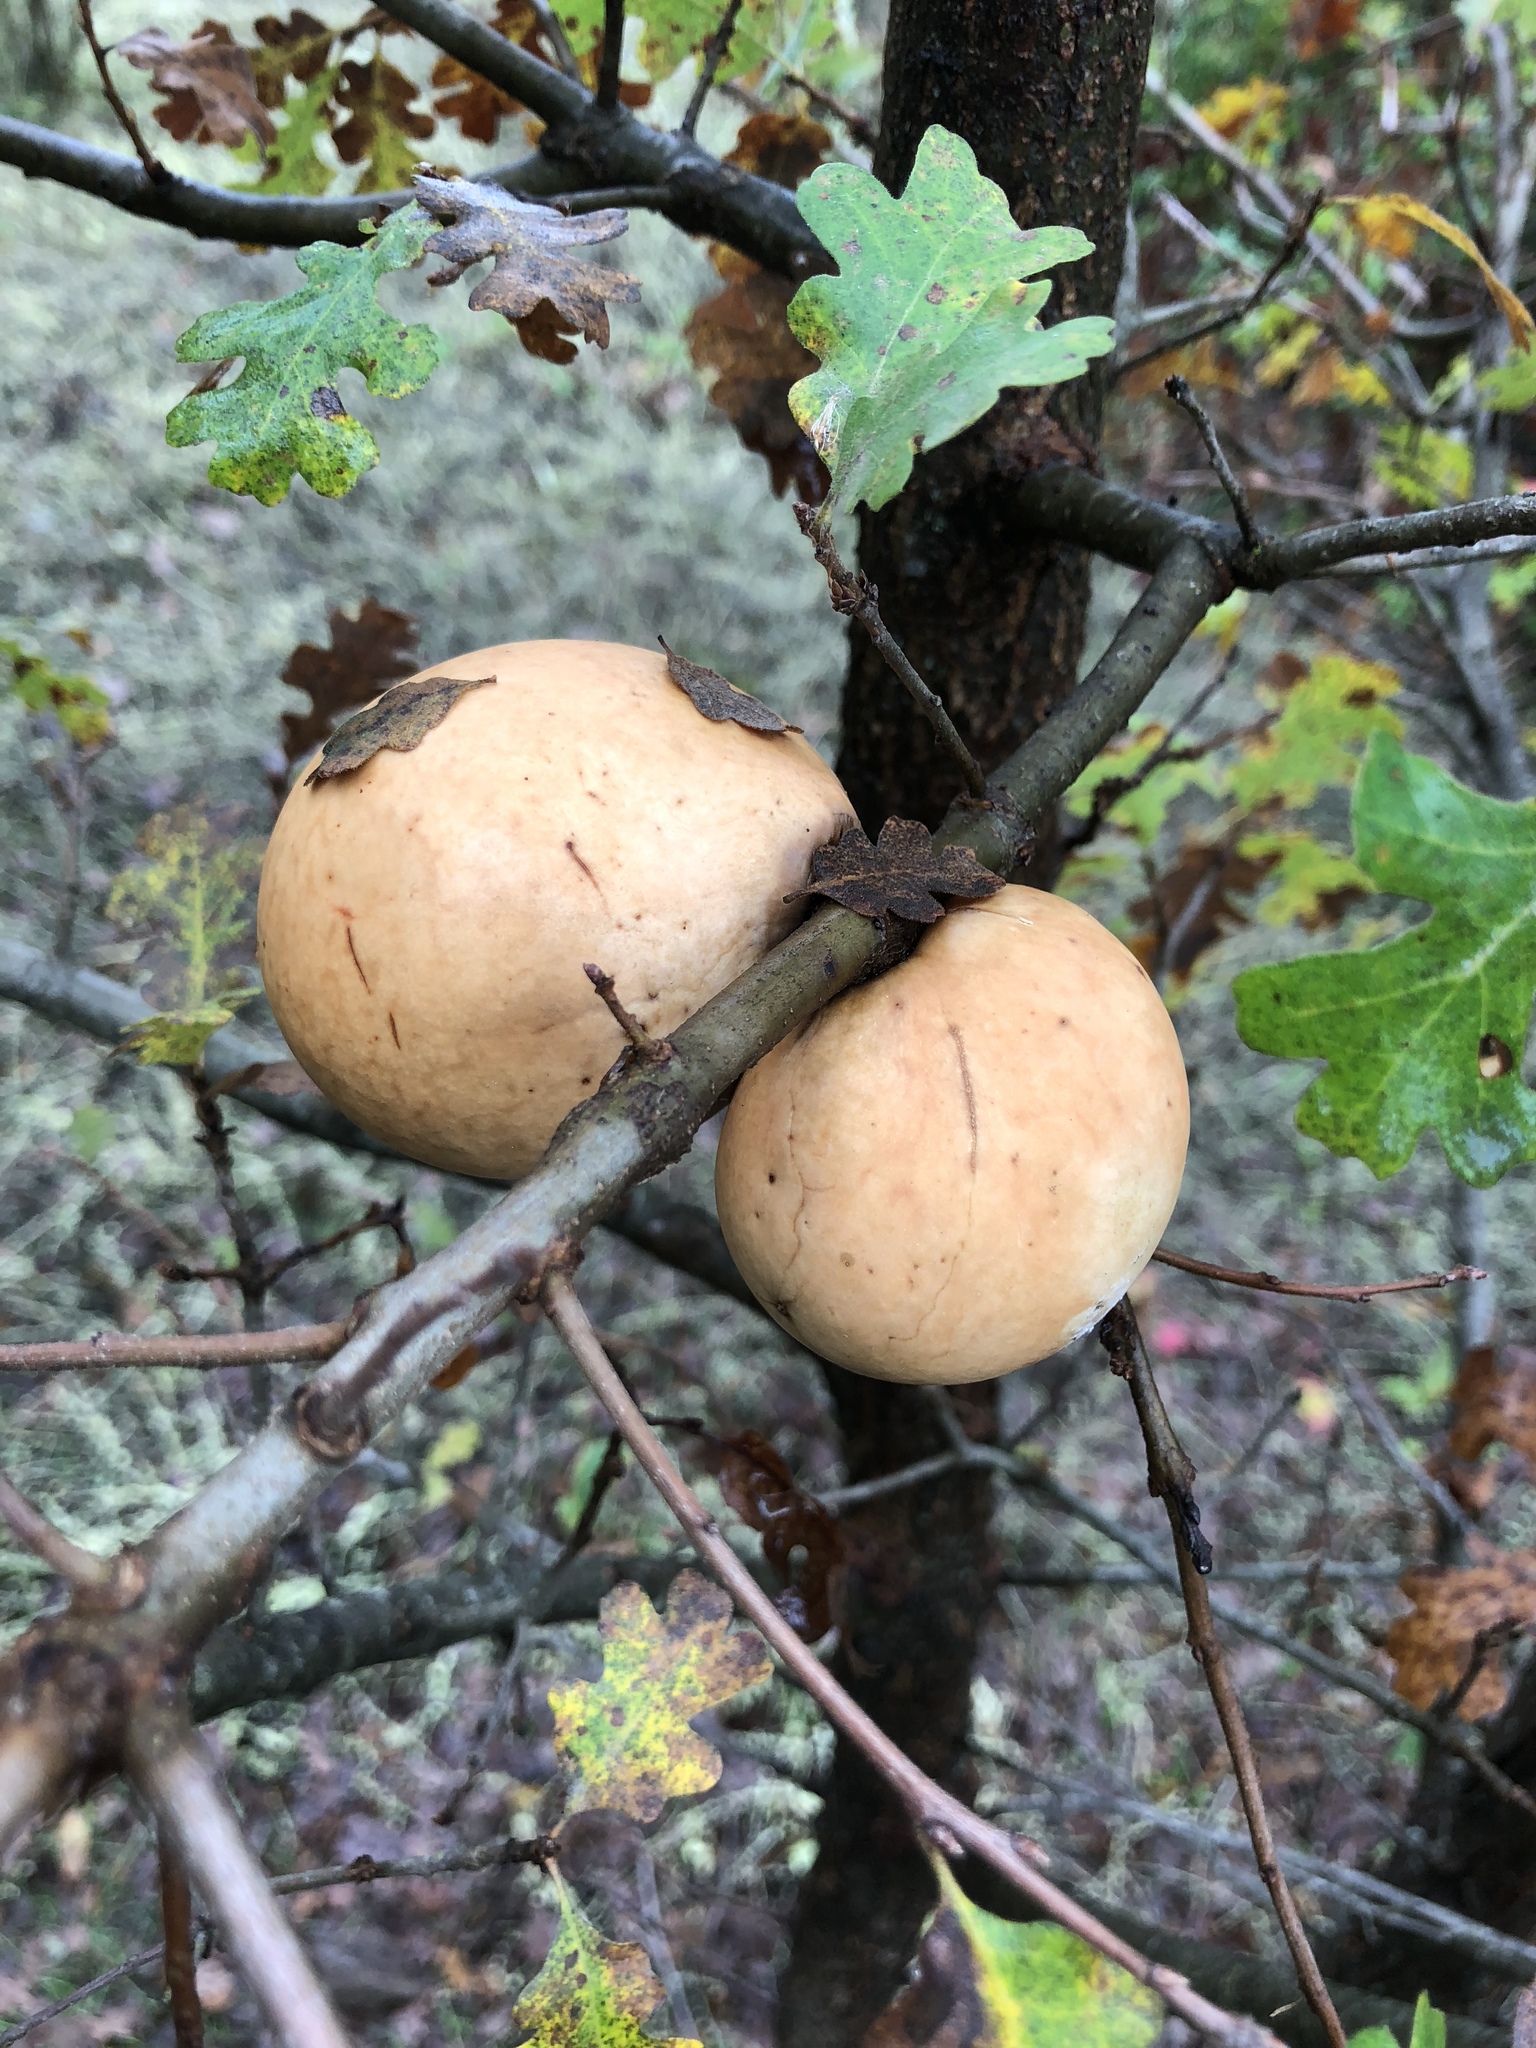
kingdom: Animalia
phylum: Arthropoda
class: Insecta
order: Hymenoptera
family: Cynipidae
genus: Andricus
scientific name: Andricus quercuscalifornicus
